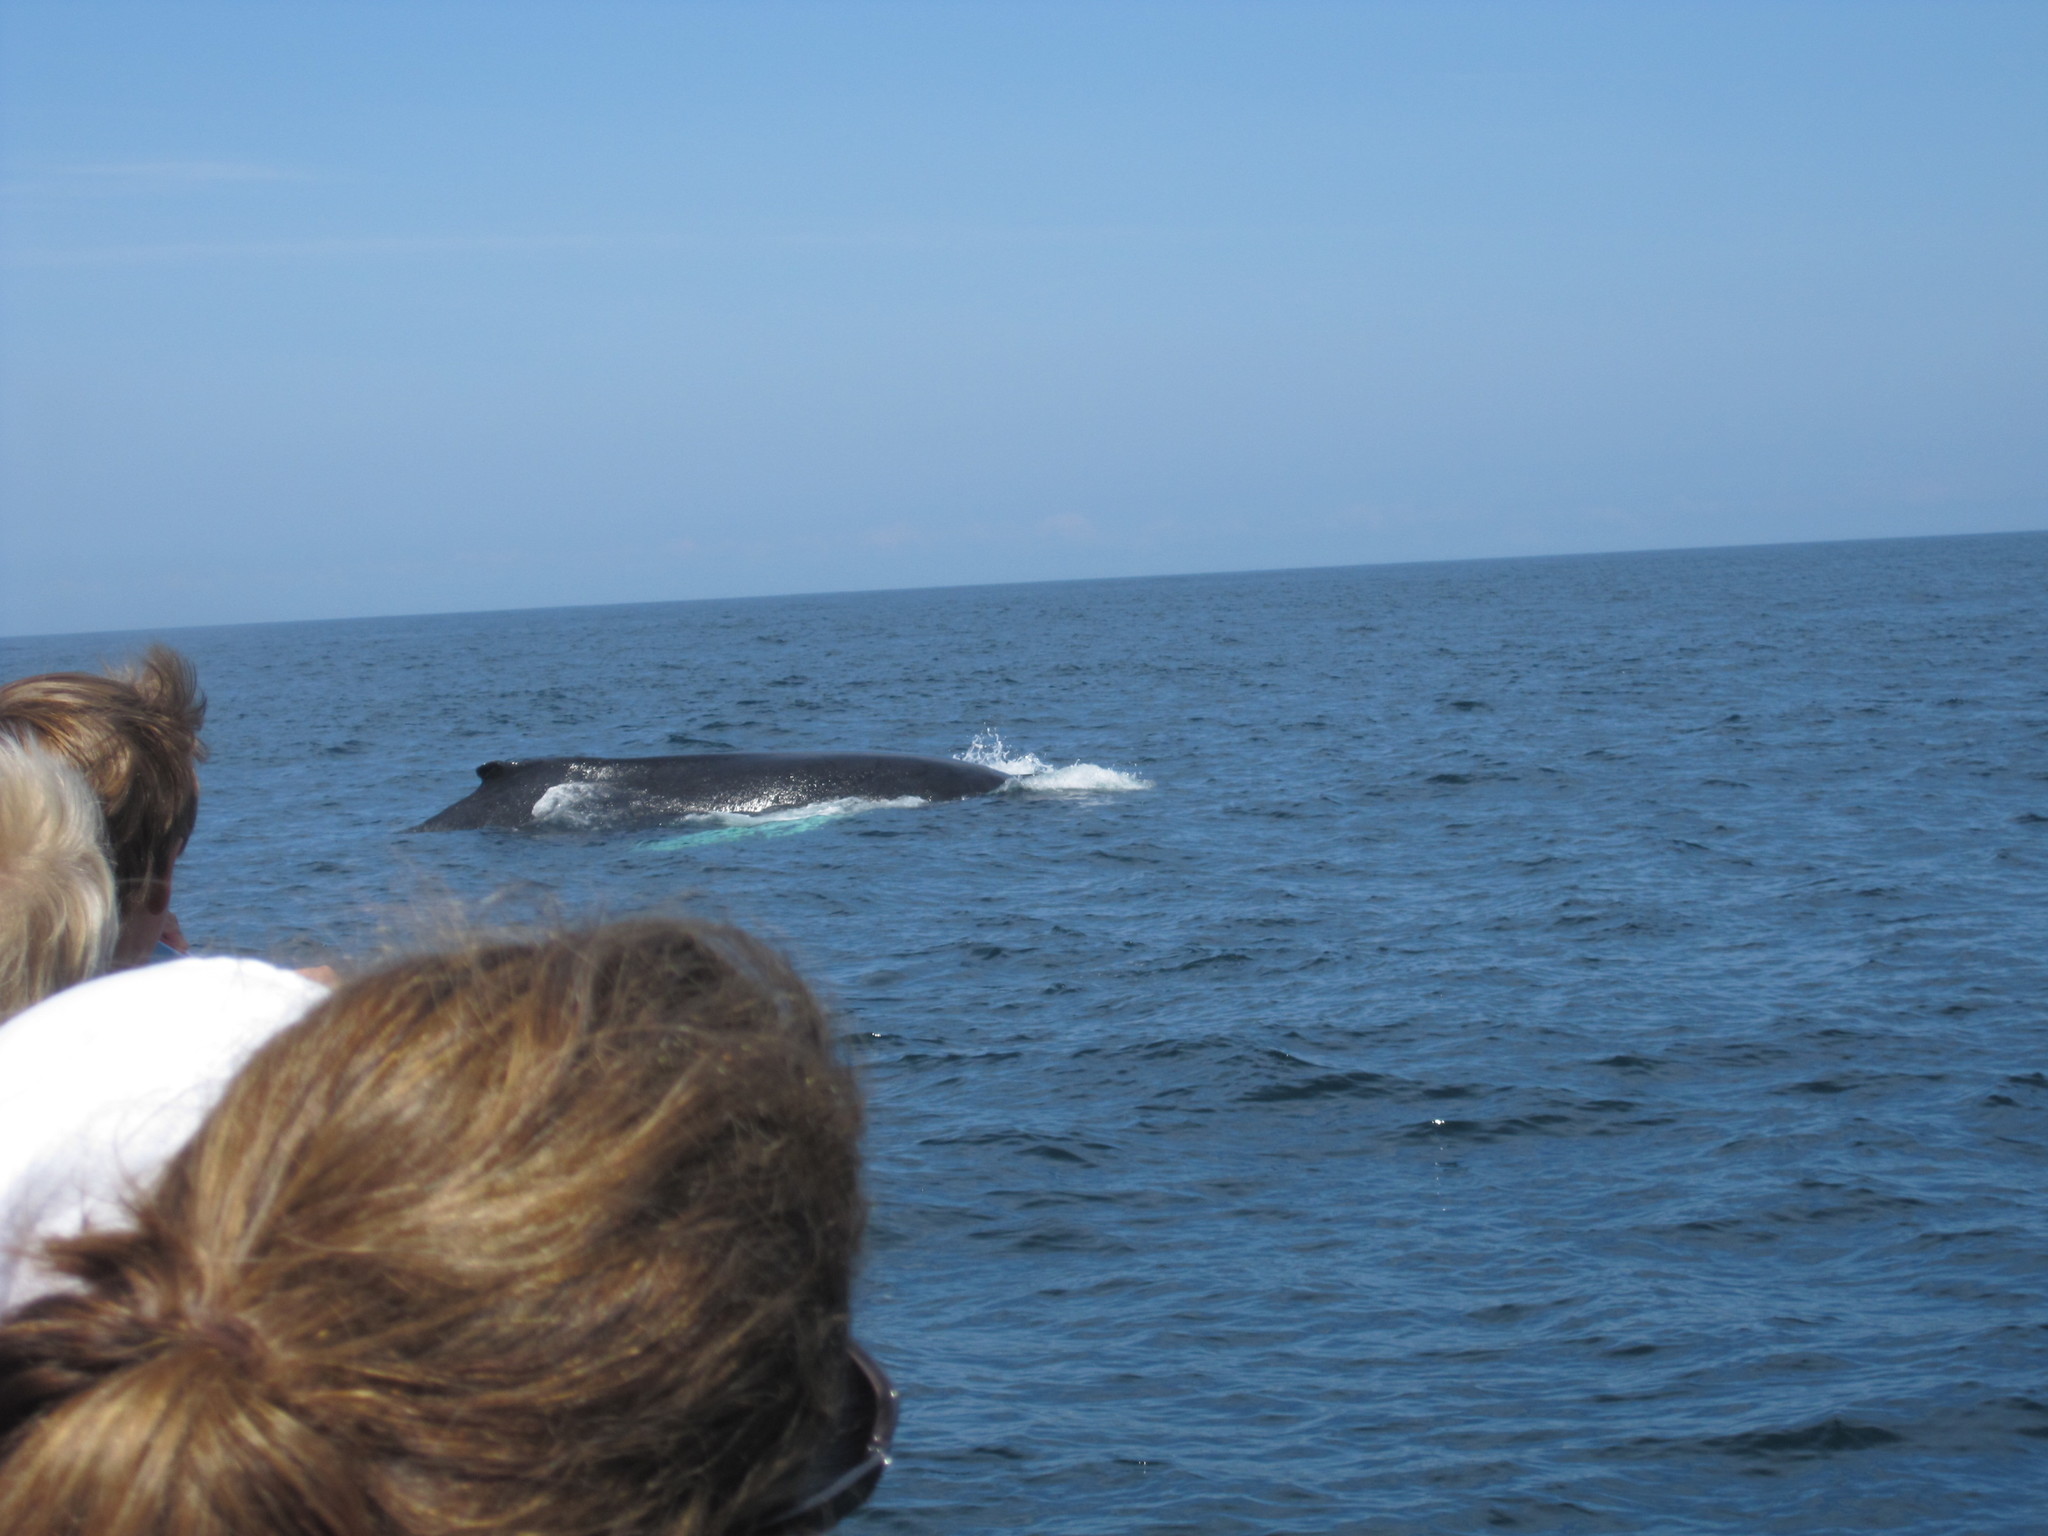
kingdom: Animalia
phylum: Chordata
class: Mammalia
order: Cetacea
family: Balaenopteridae
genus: Megaptera
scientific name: Megaptera novaeangliae
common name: Humpback whale
